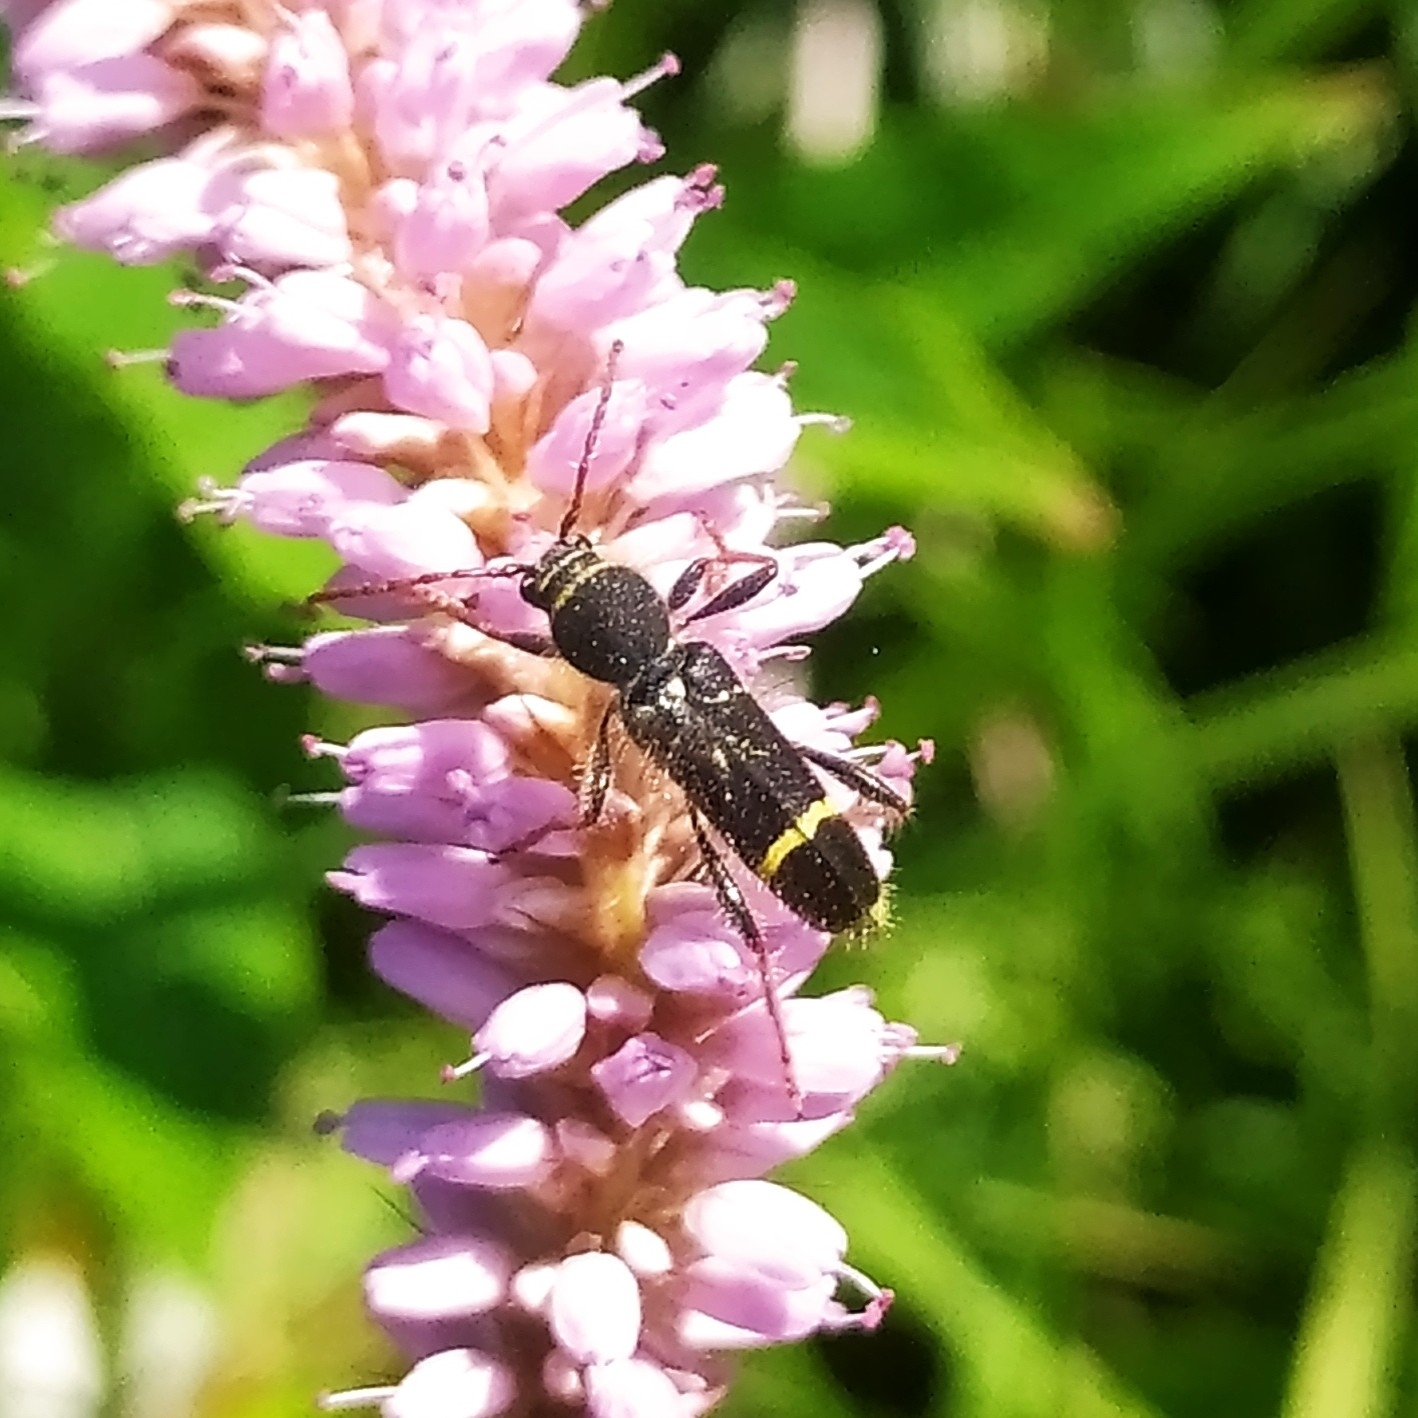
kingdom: Animalia
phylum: Arthropoda
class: Insecta
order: Coleoptera
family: Cerambycidae
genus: Cyrtoclytus
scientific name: Cyrtoclytus capra
